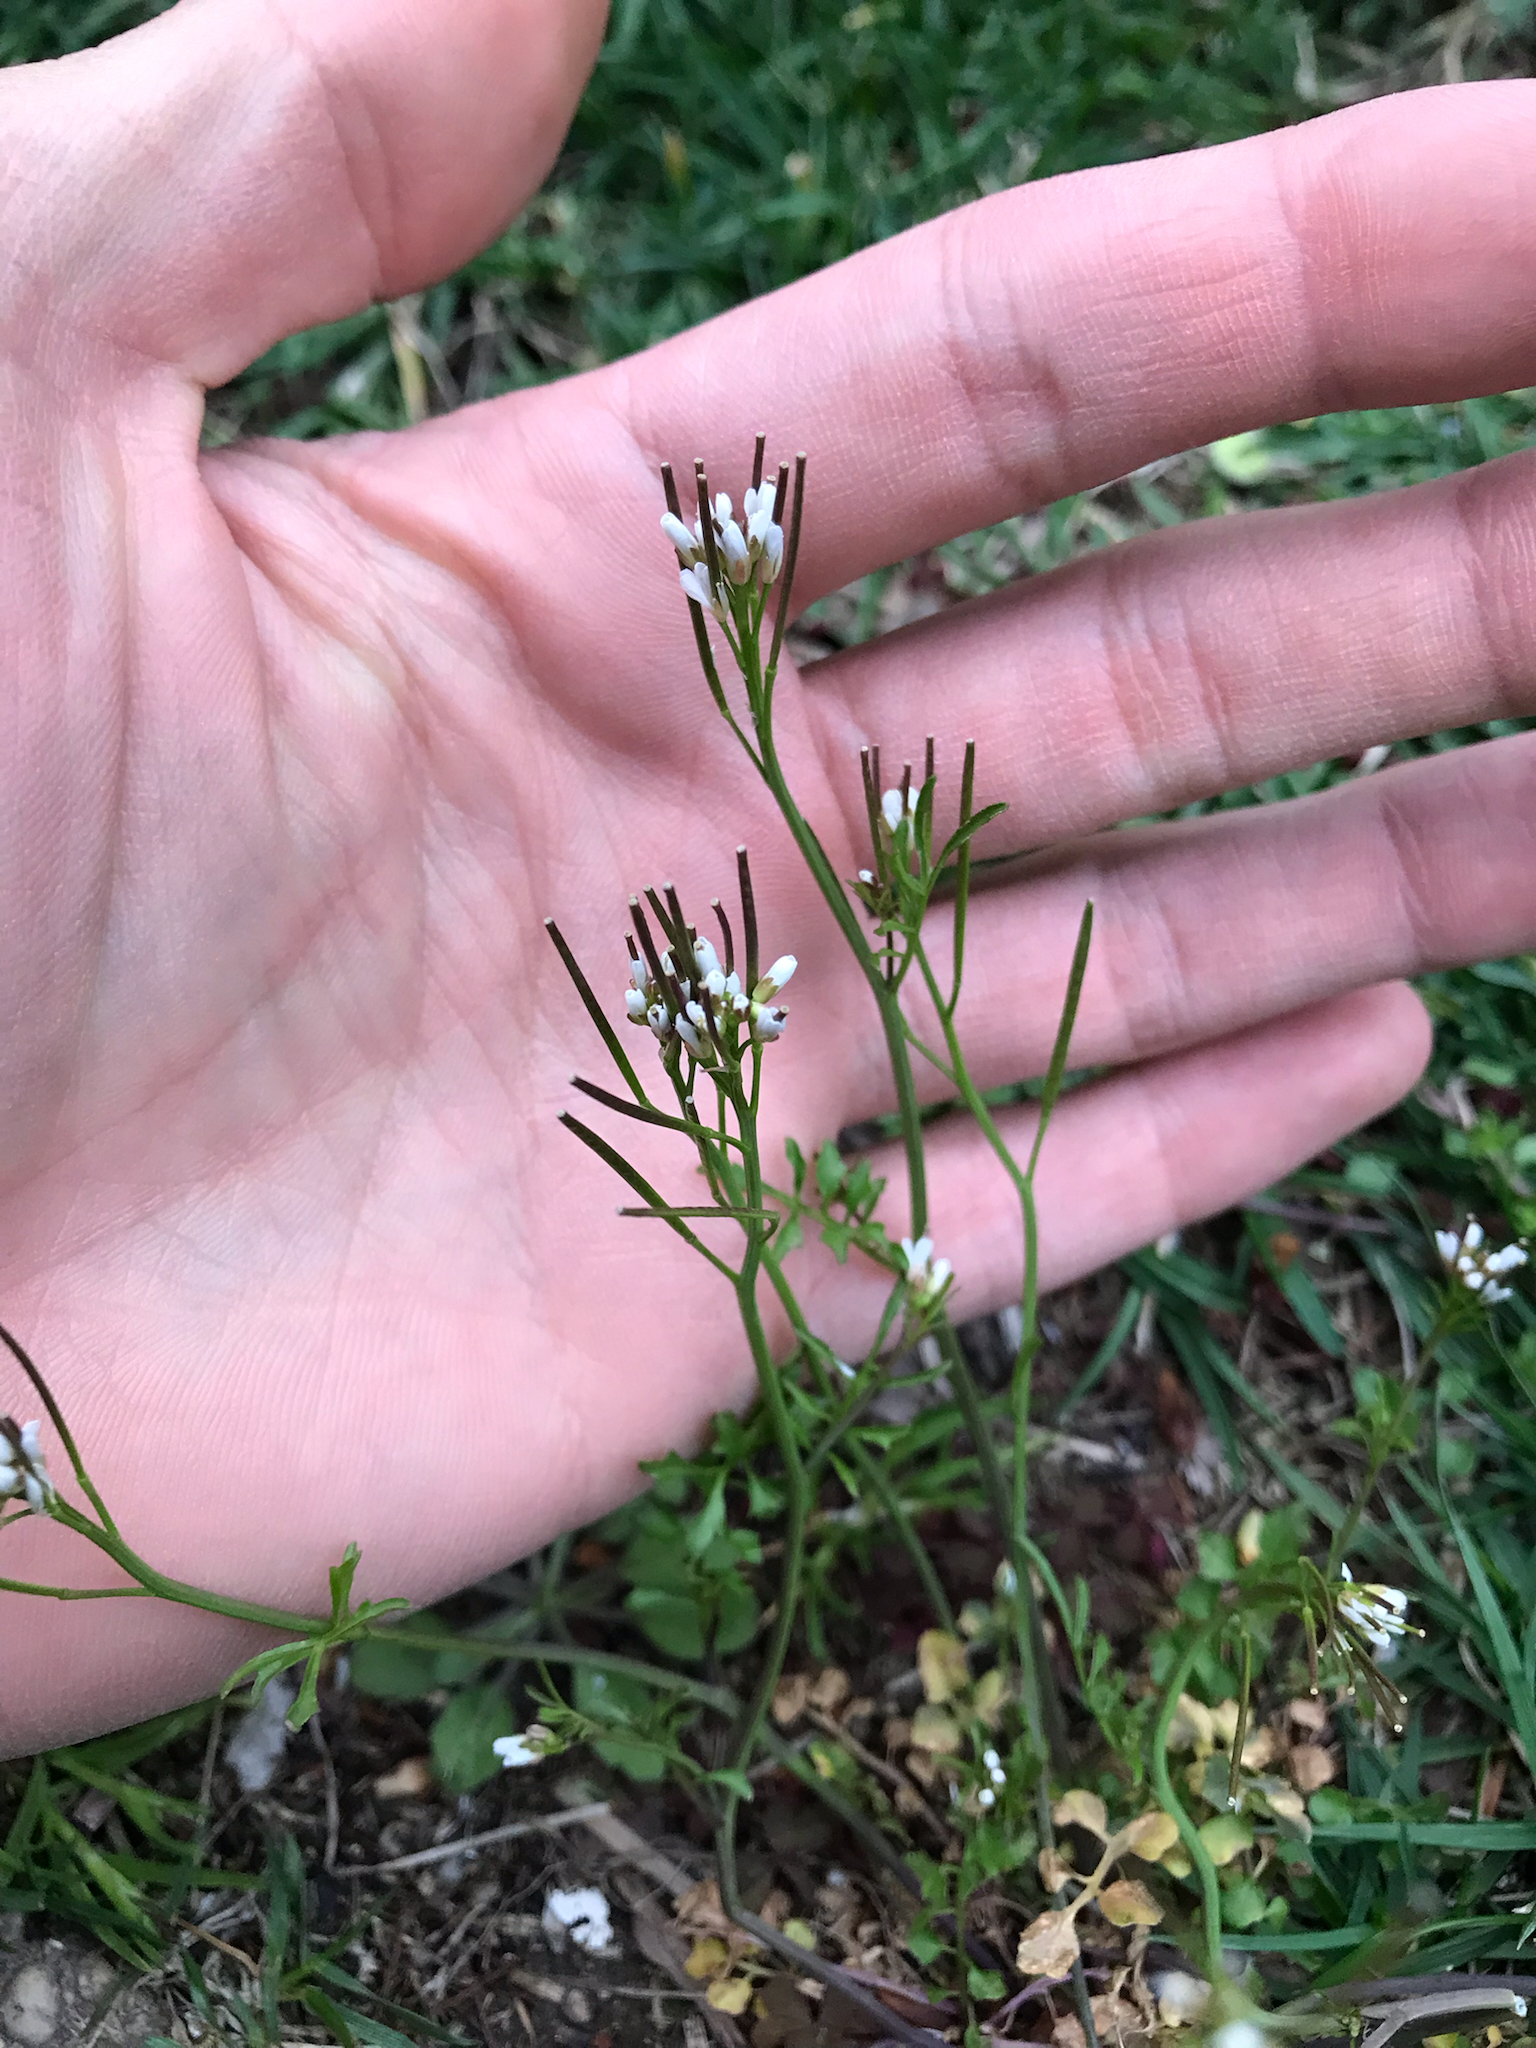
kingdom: Plantae
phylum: Tracheophyta
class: Magnoliopsida
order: Brassicales
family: Brassicaceae
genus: Cardamine
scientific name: Cardamine hirsuta
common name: Hairy bittercress
